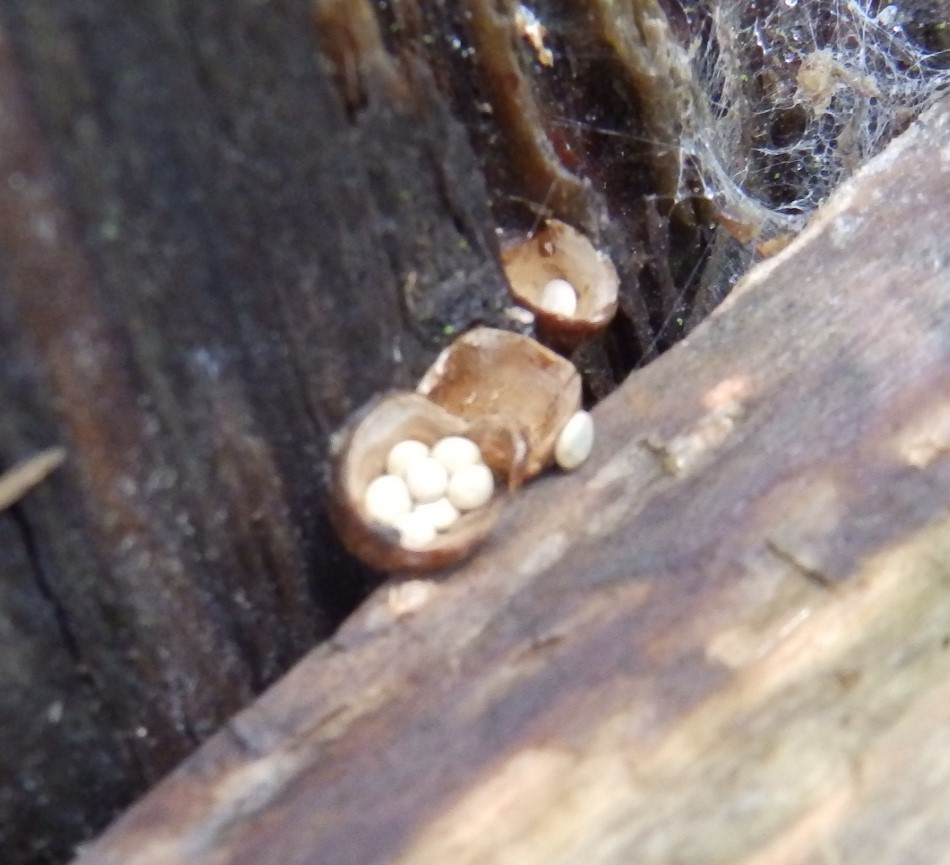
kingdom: Fungi
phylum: Basidiomycota
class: Agaricomycetes
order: Agaricales
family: Nidulariaceae
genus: Crucibulum
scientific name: Crucibulum laeve
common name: Common bird's nest
